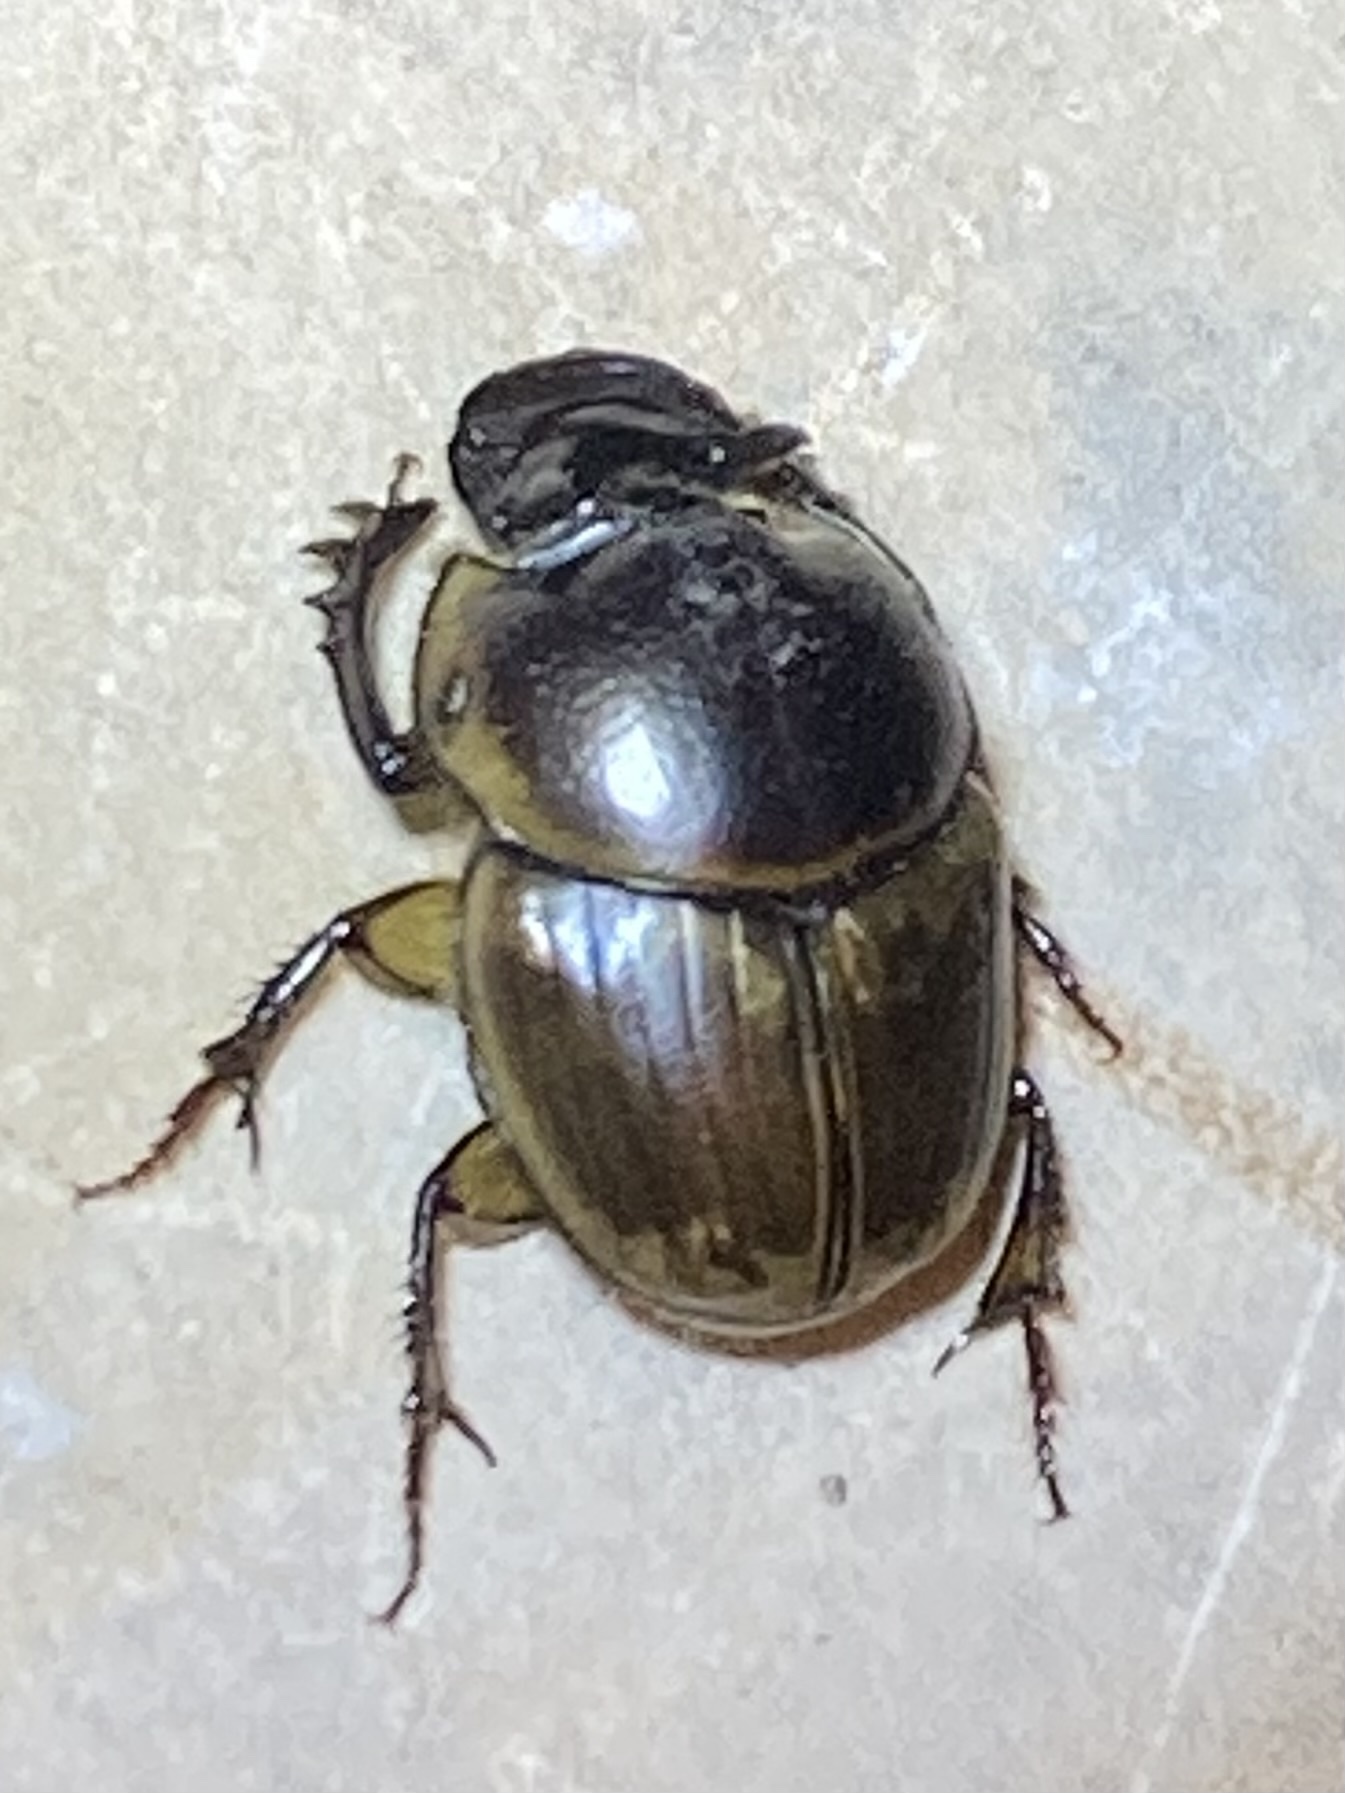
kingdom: Animalia
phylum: Arthropoda
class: Insecta
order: Coleoptera
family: Scarabaeidae
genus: Digitonthophagus
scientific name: Digitonthophagus gazella
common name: Brown dung beetle
